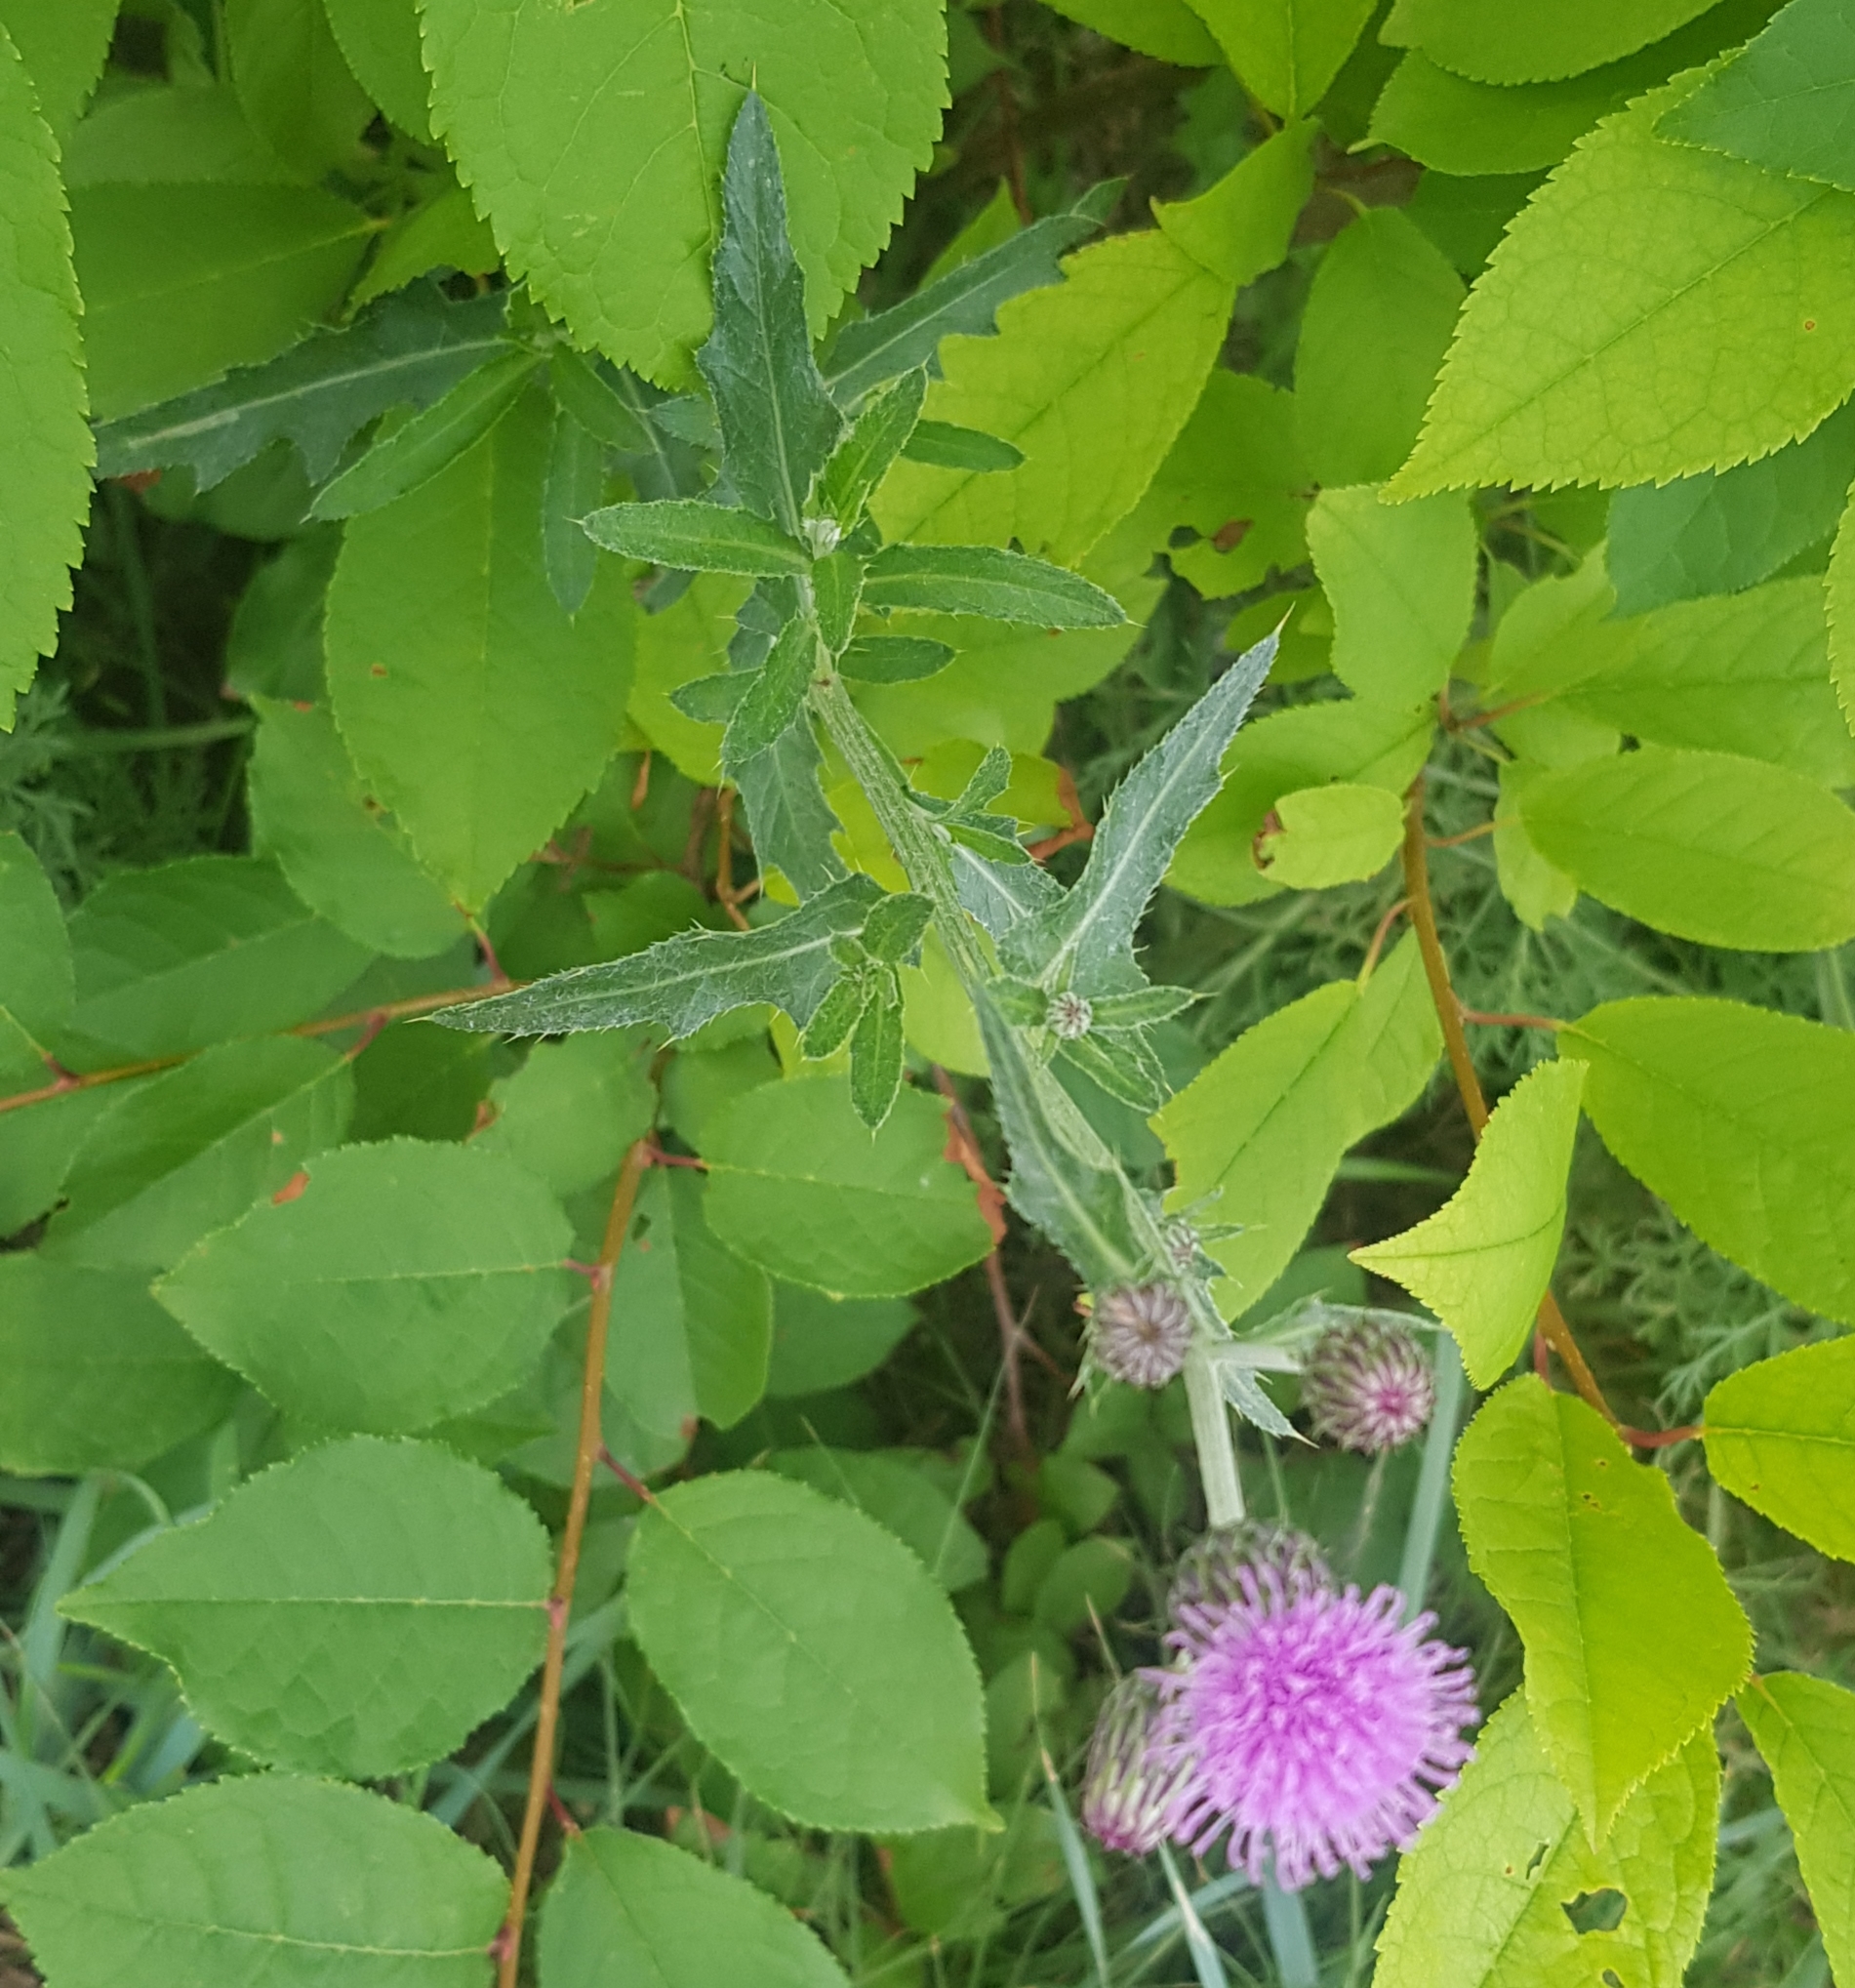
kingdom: Plantae
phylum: Tracheophyta
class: Magnoliopsida
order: Asterales
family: Asteraceae
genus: Cirsium
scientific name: Cirsium arvense
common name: Creeping thistle
